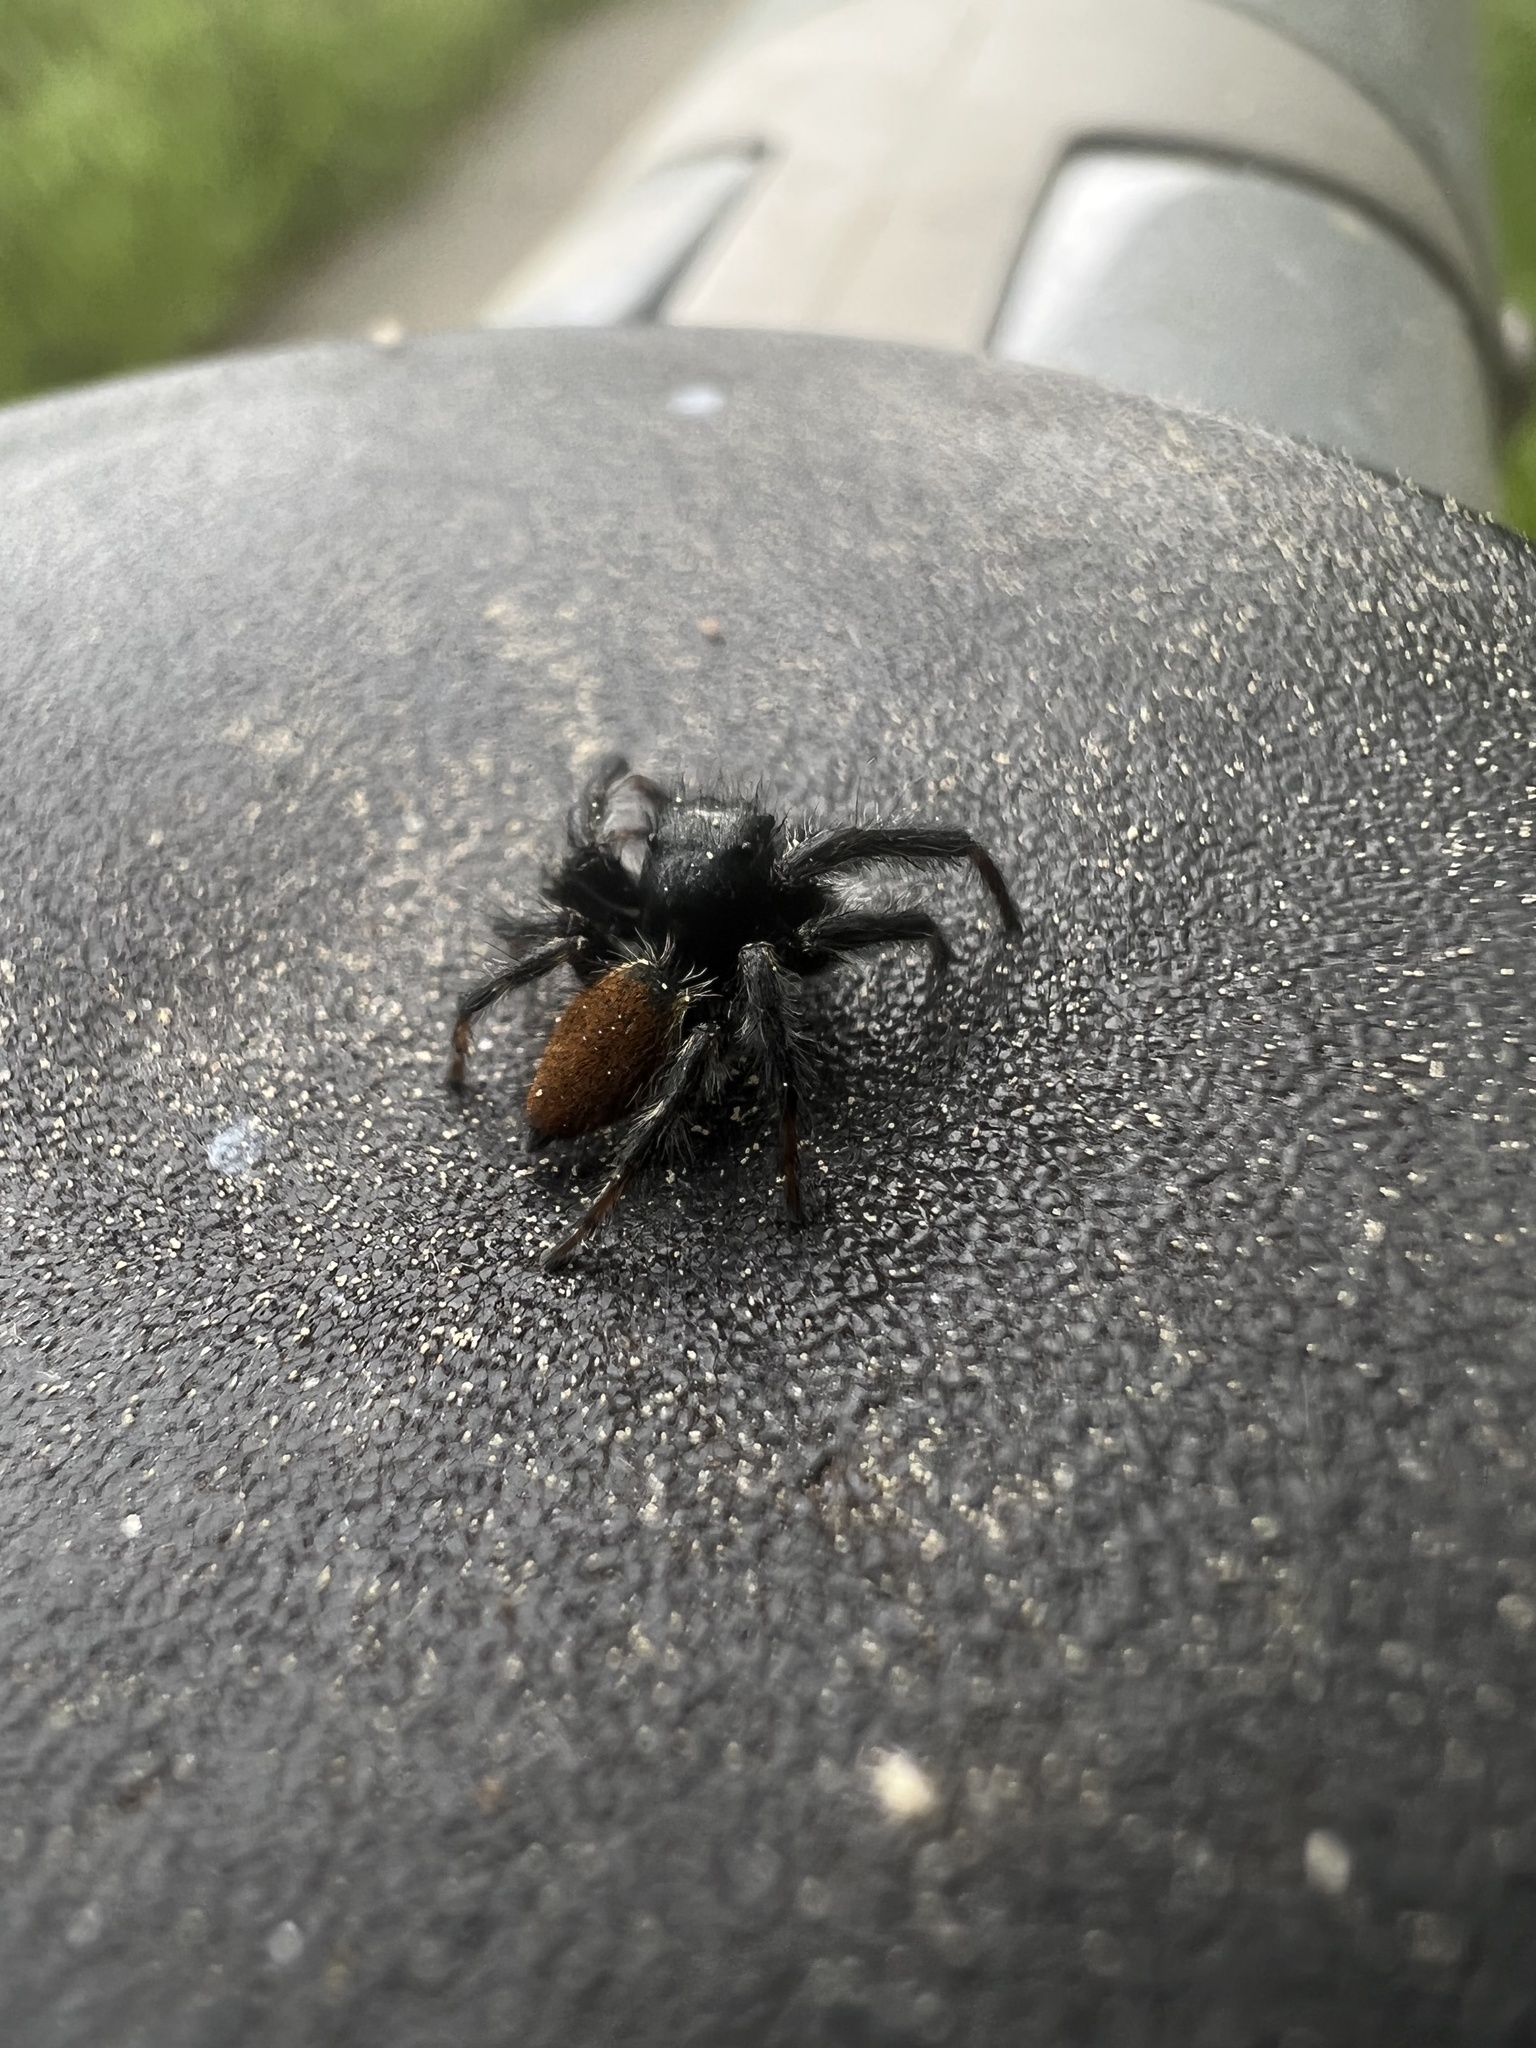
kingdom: Animalia
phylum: Arthropoda
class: Arachnida
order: Araneae
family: Salticidae
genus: Carrhotus
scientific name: Carrhotus xanthogramma
